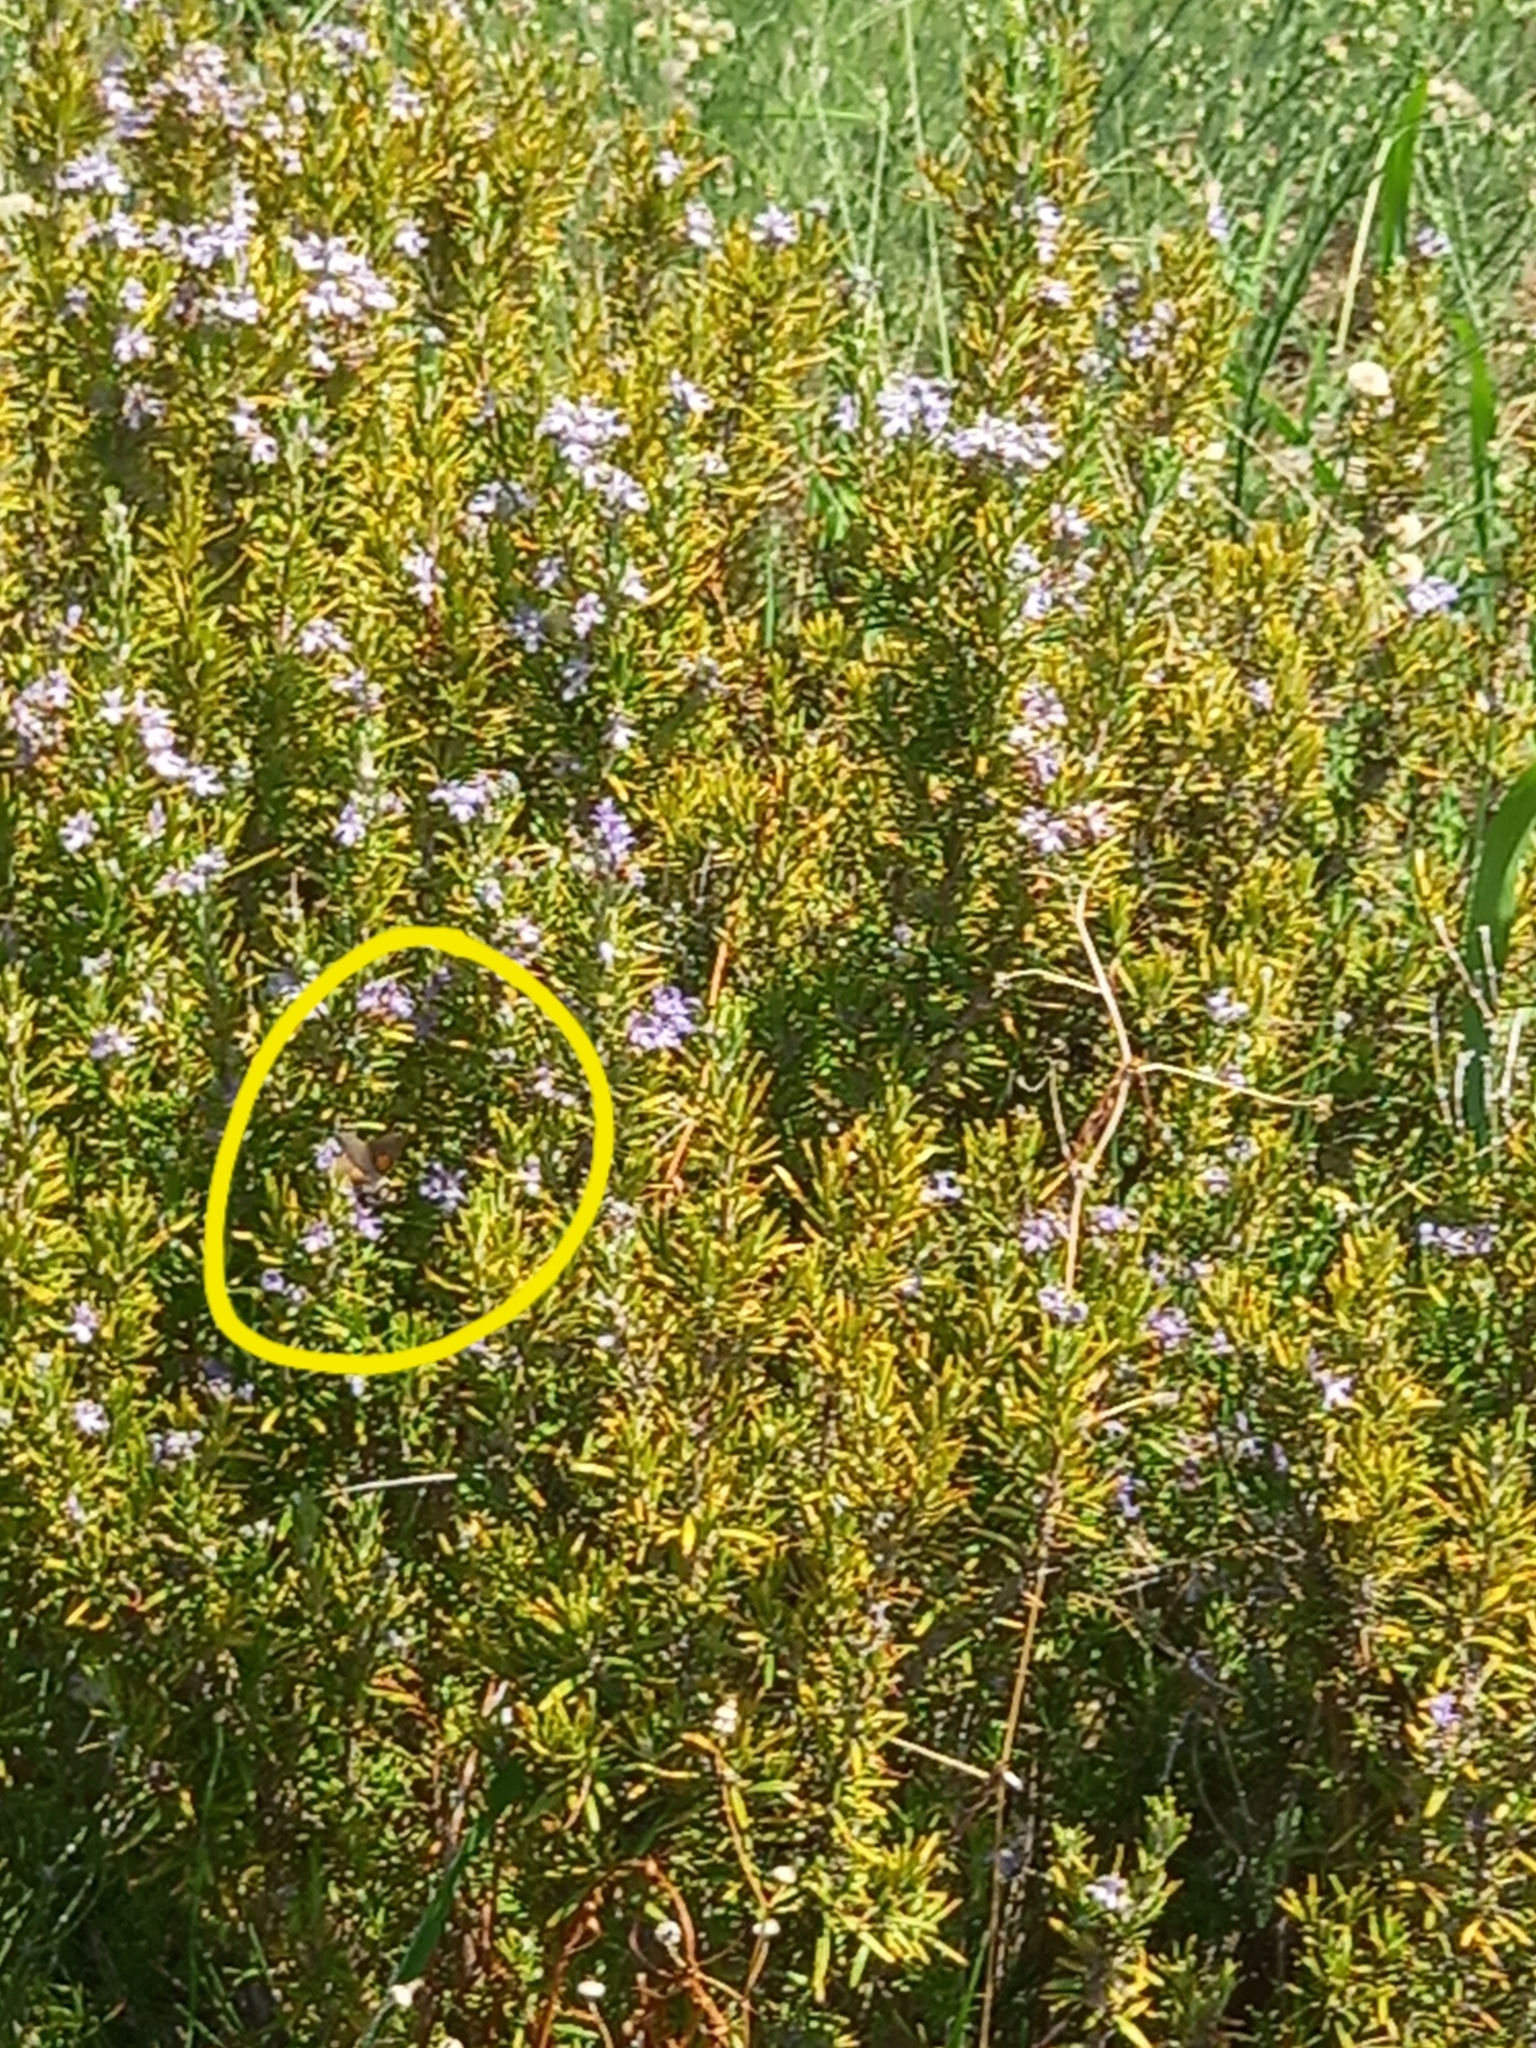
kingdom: Animalia
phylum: Arthropoda
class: Insecta
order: Lepidoptera
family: Sphingidae
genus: Macroglossum
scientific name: Macroglossum stellatarum
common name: Humming-bird hawk-moth
